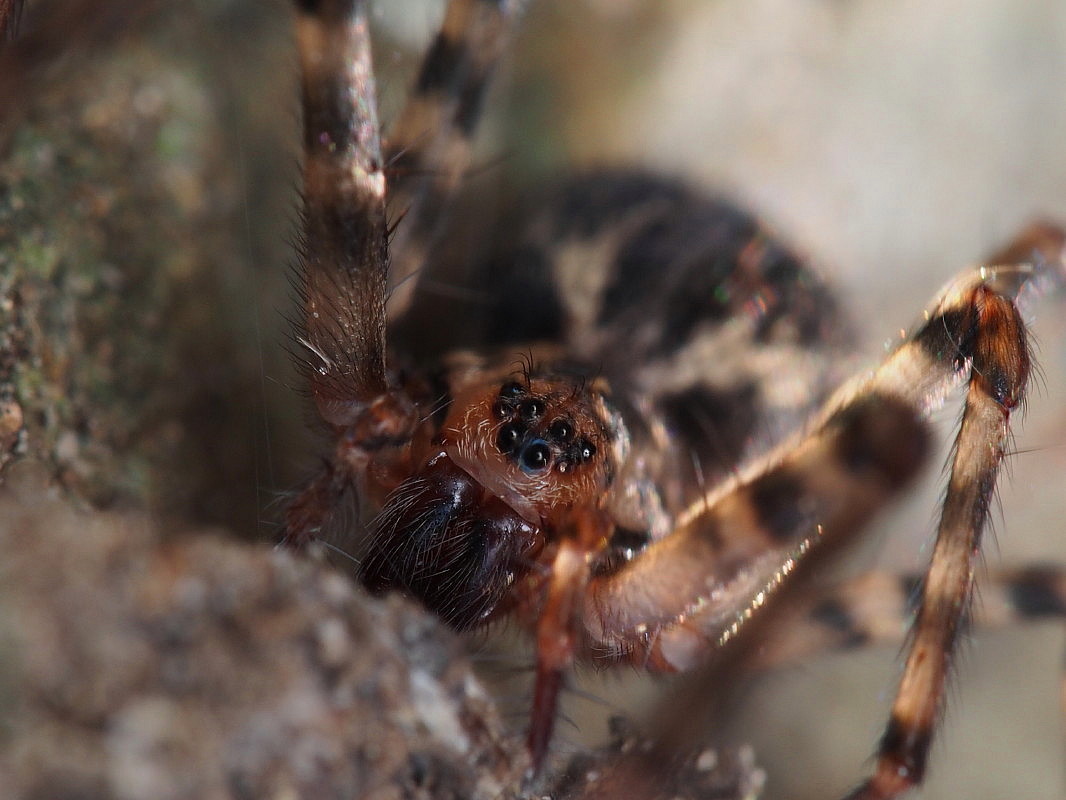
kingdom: Animalia
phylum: Arthropoda
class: Arachnida
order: Araneae
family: Stiphidiidae
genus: Stiphidion
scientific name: Stiphidion facetum
